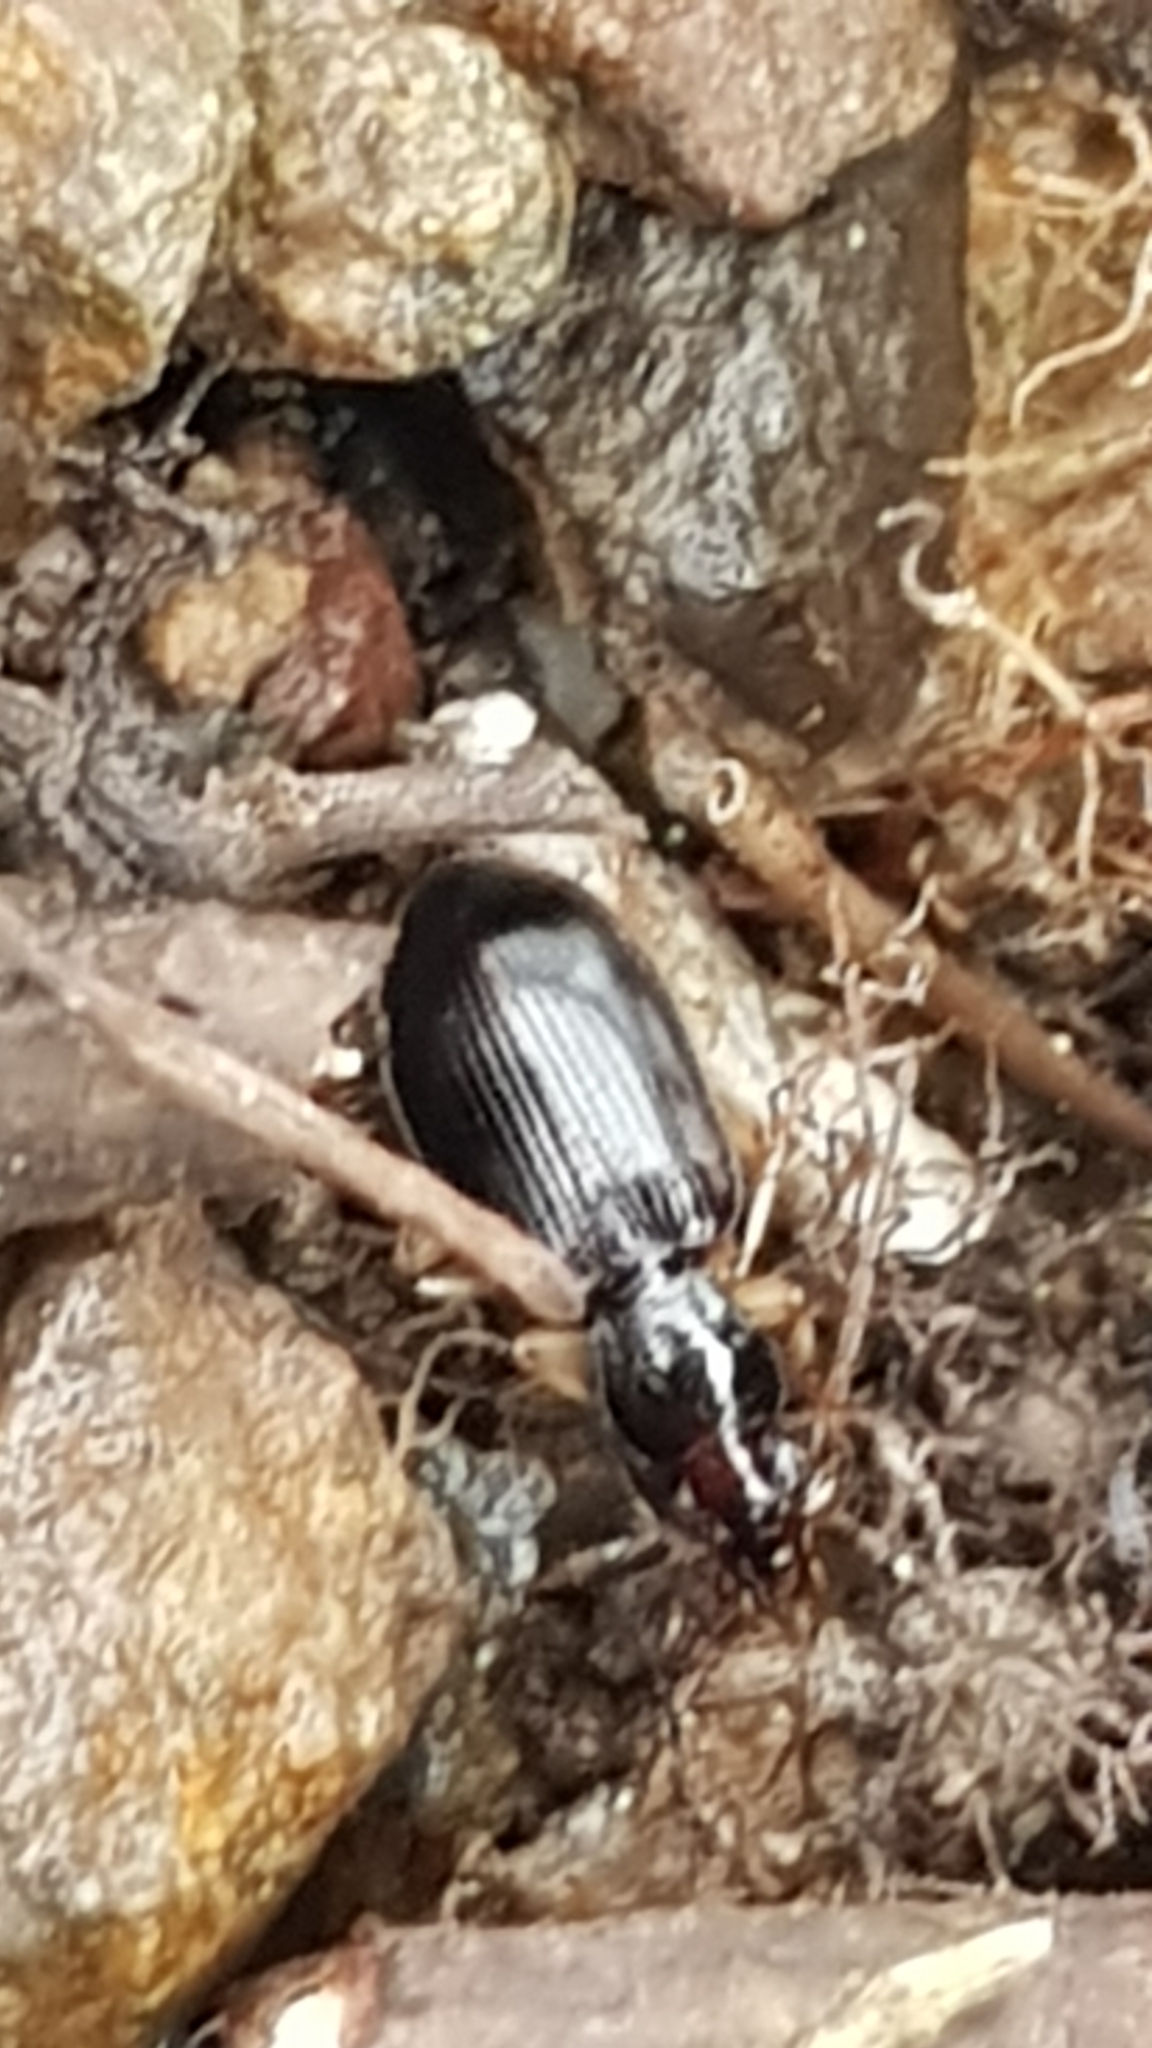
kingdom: Animalia
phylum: Arthropoda
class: Insecta
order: Coleoptera
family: Carabidae
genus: Paranchus
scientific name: Paranchus albipes
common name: White-legged harp ground beetle
